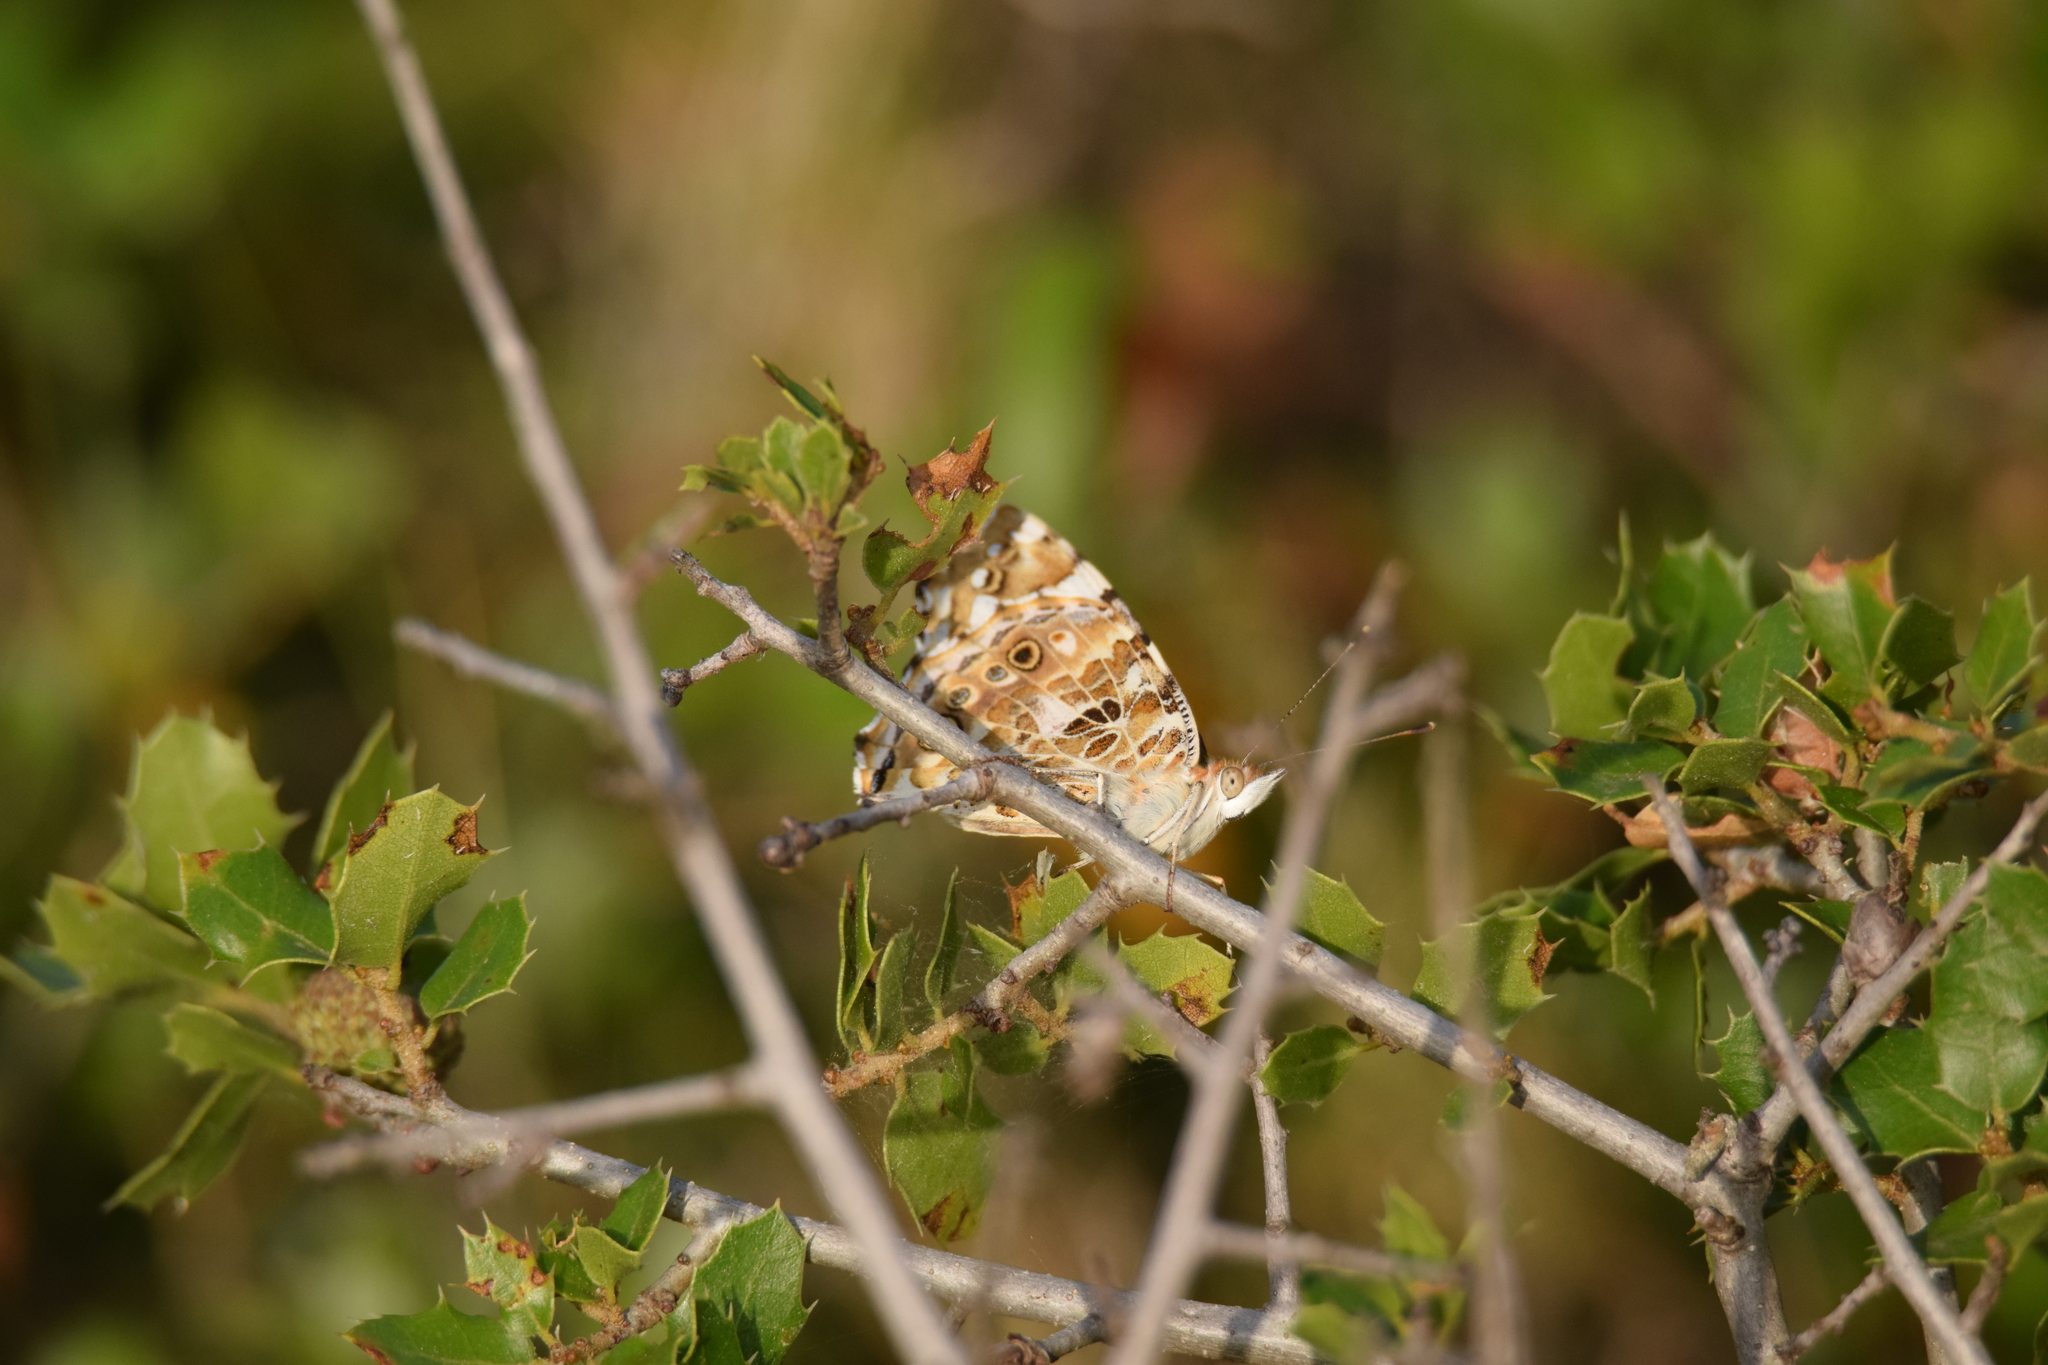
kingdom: Animalia
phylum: Arthropoda
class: Insecta
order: Lepidoptera
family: Nymphalidae
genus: Vanessa
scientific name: Vanessa cardui
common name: Painted lady
